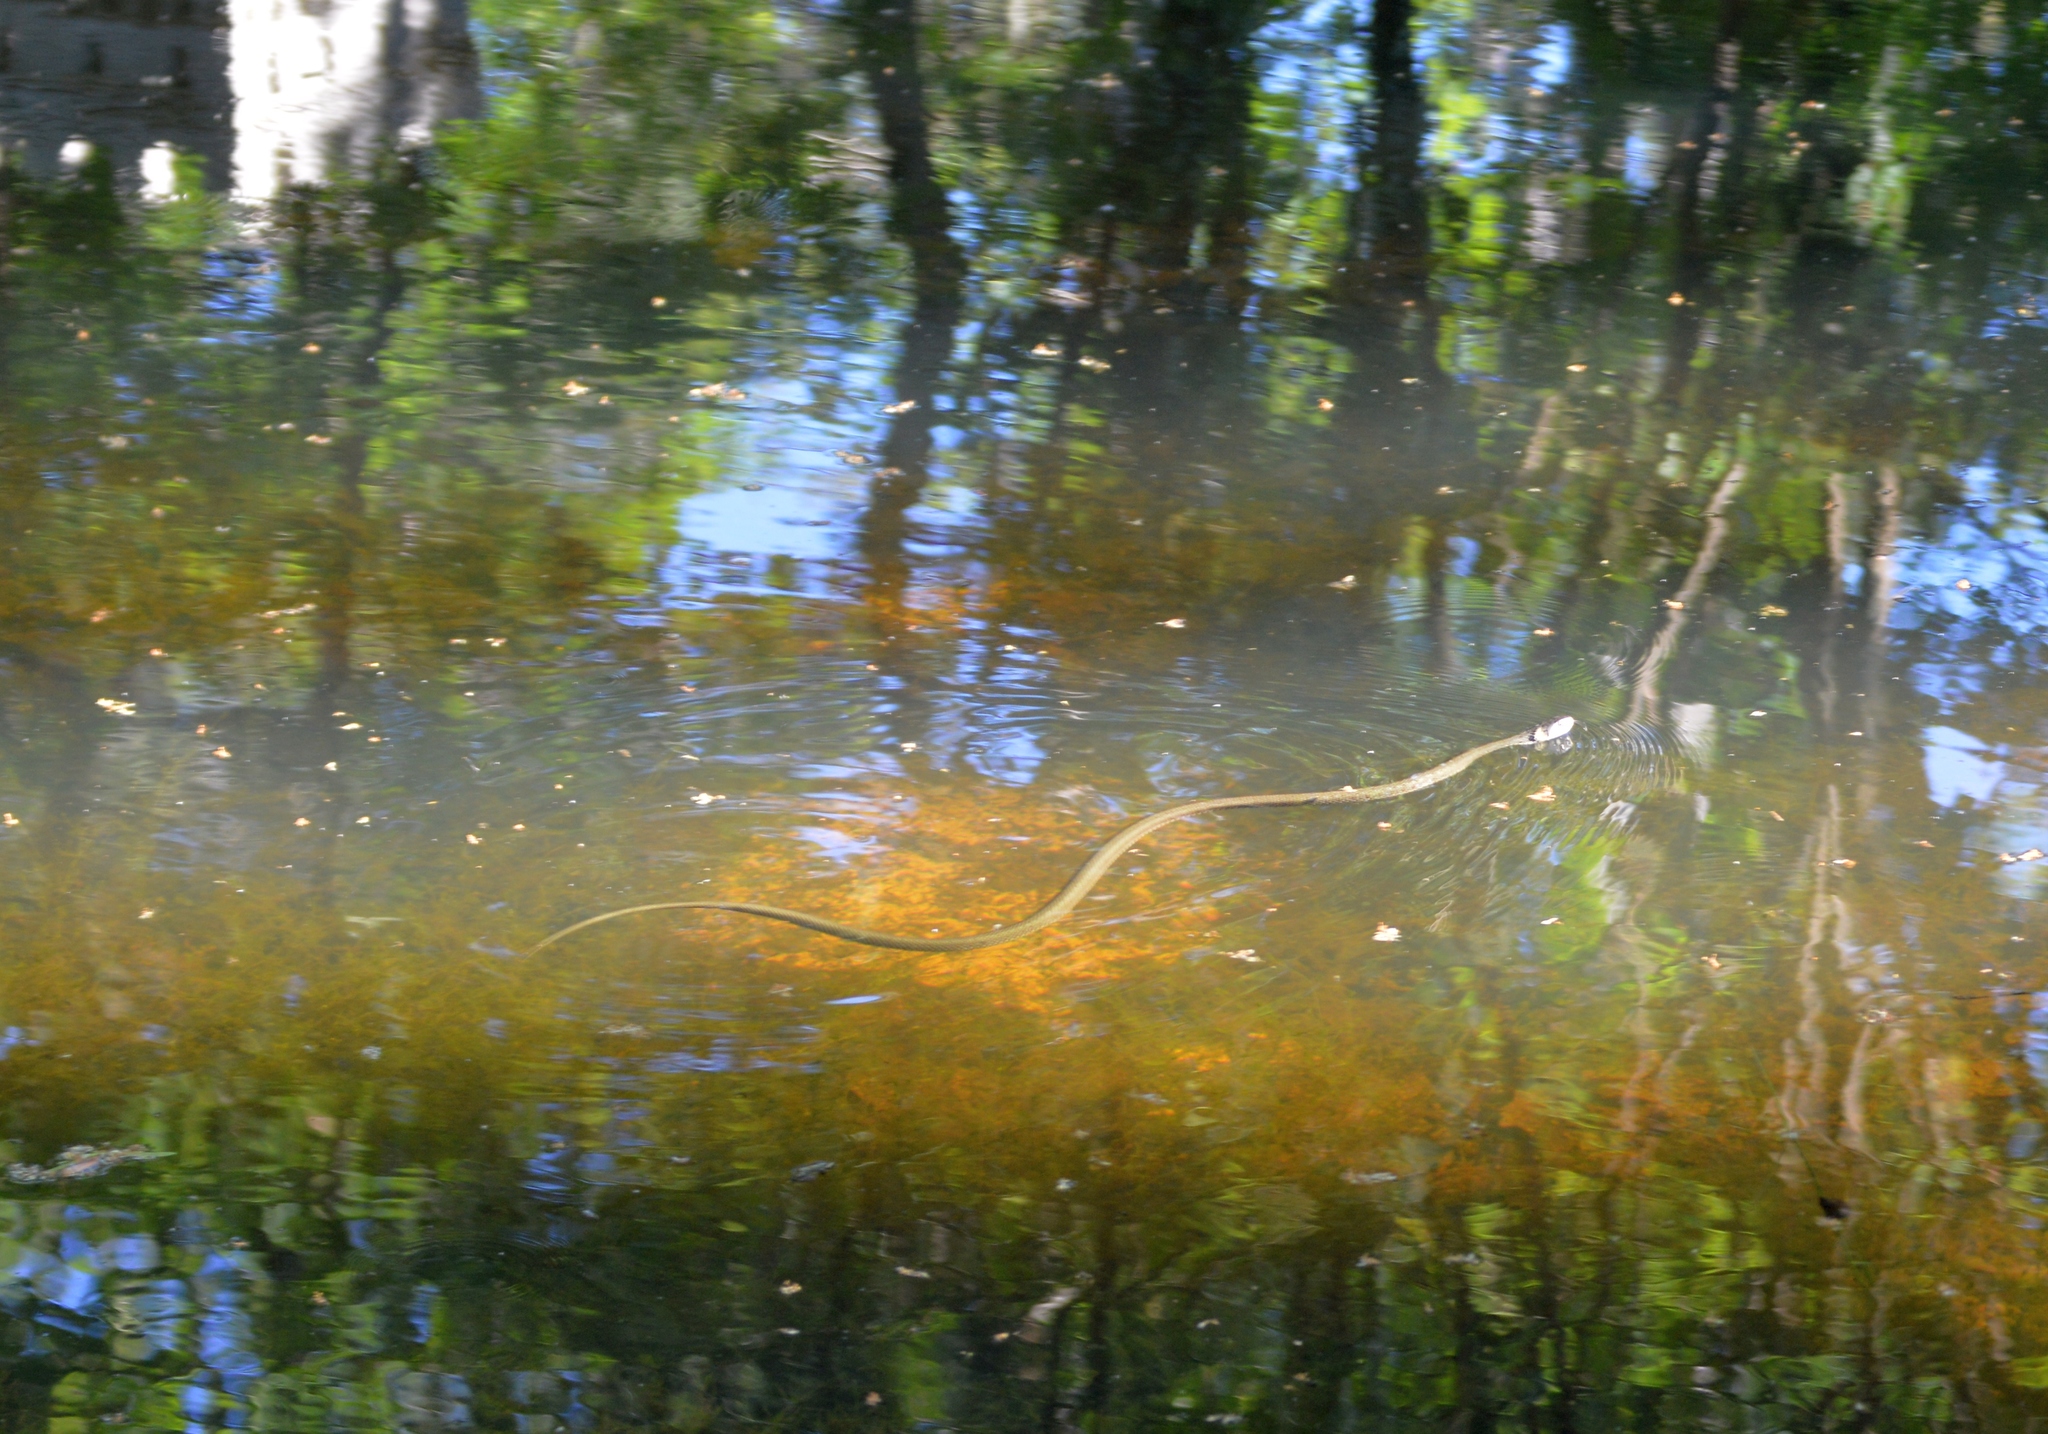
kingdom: Animalia
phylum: Chordata
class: Squamata
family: Colubridae
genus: Natrix
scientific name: Natrix natrix
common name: Grass snake
